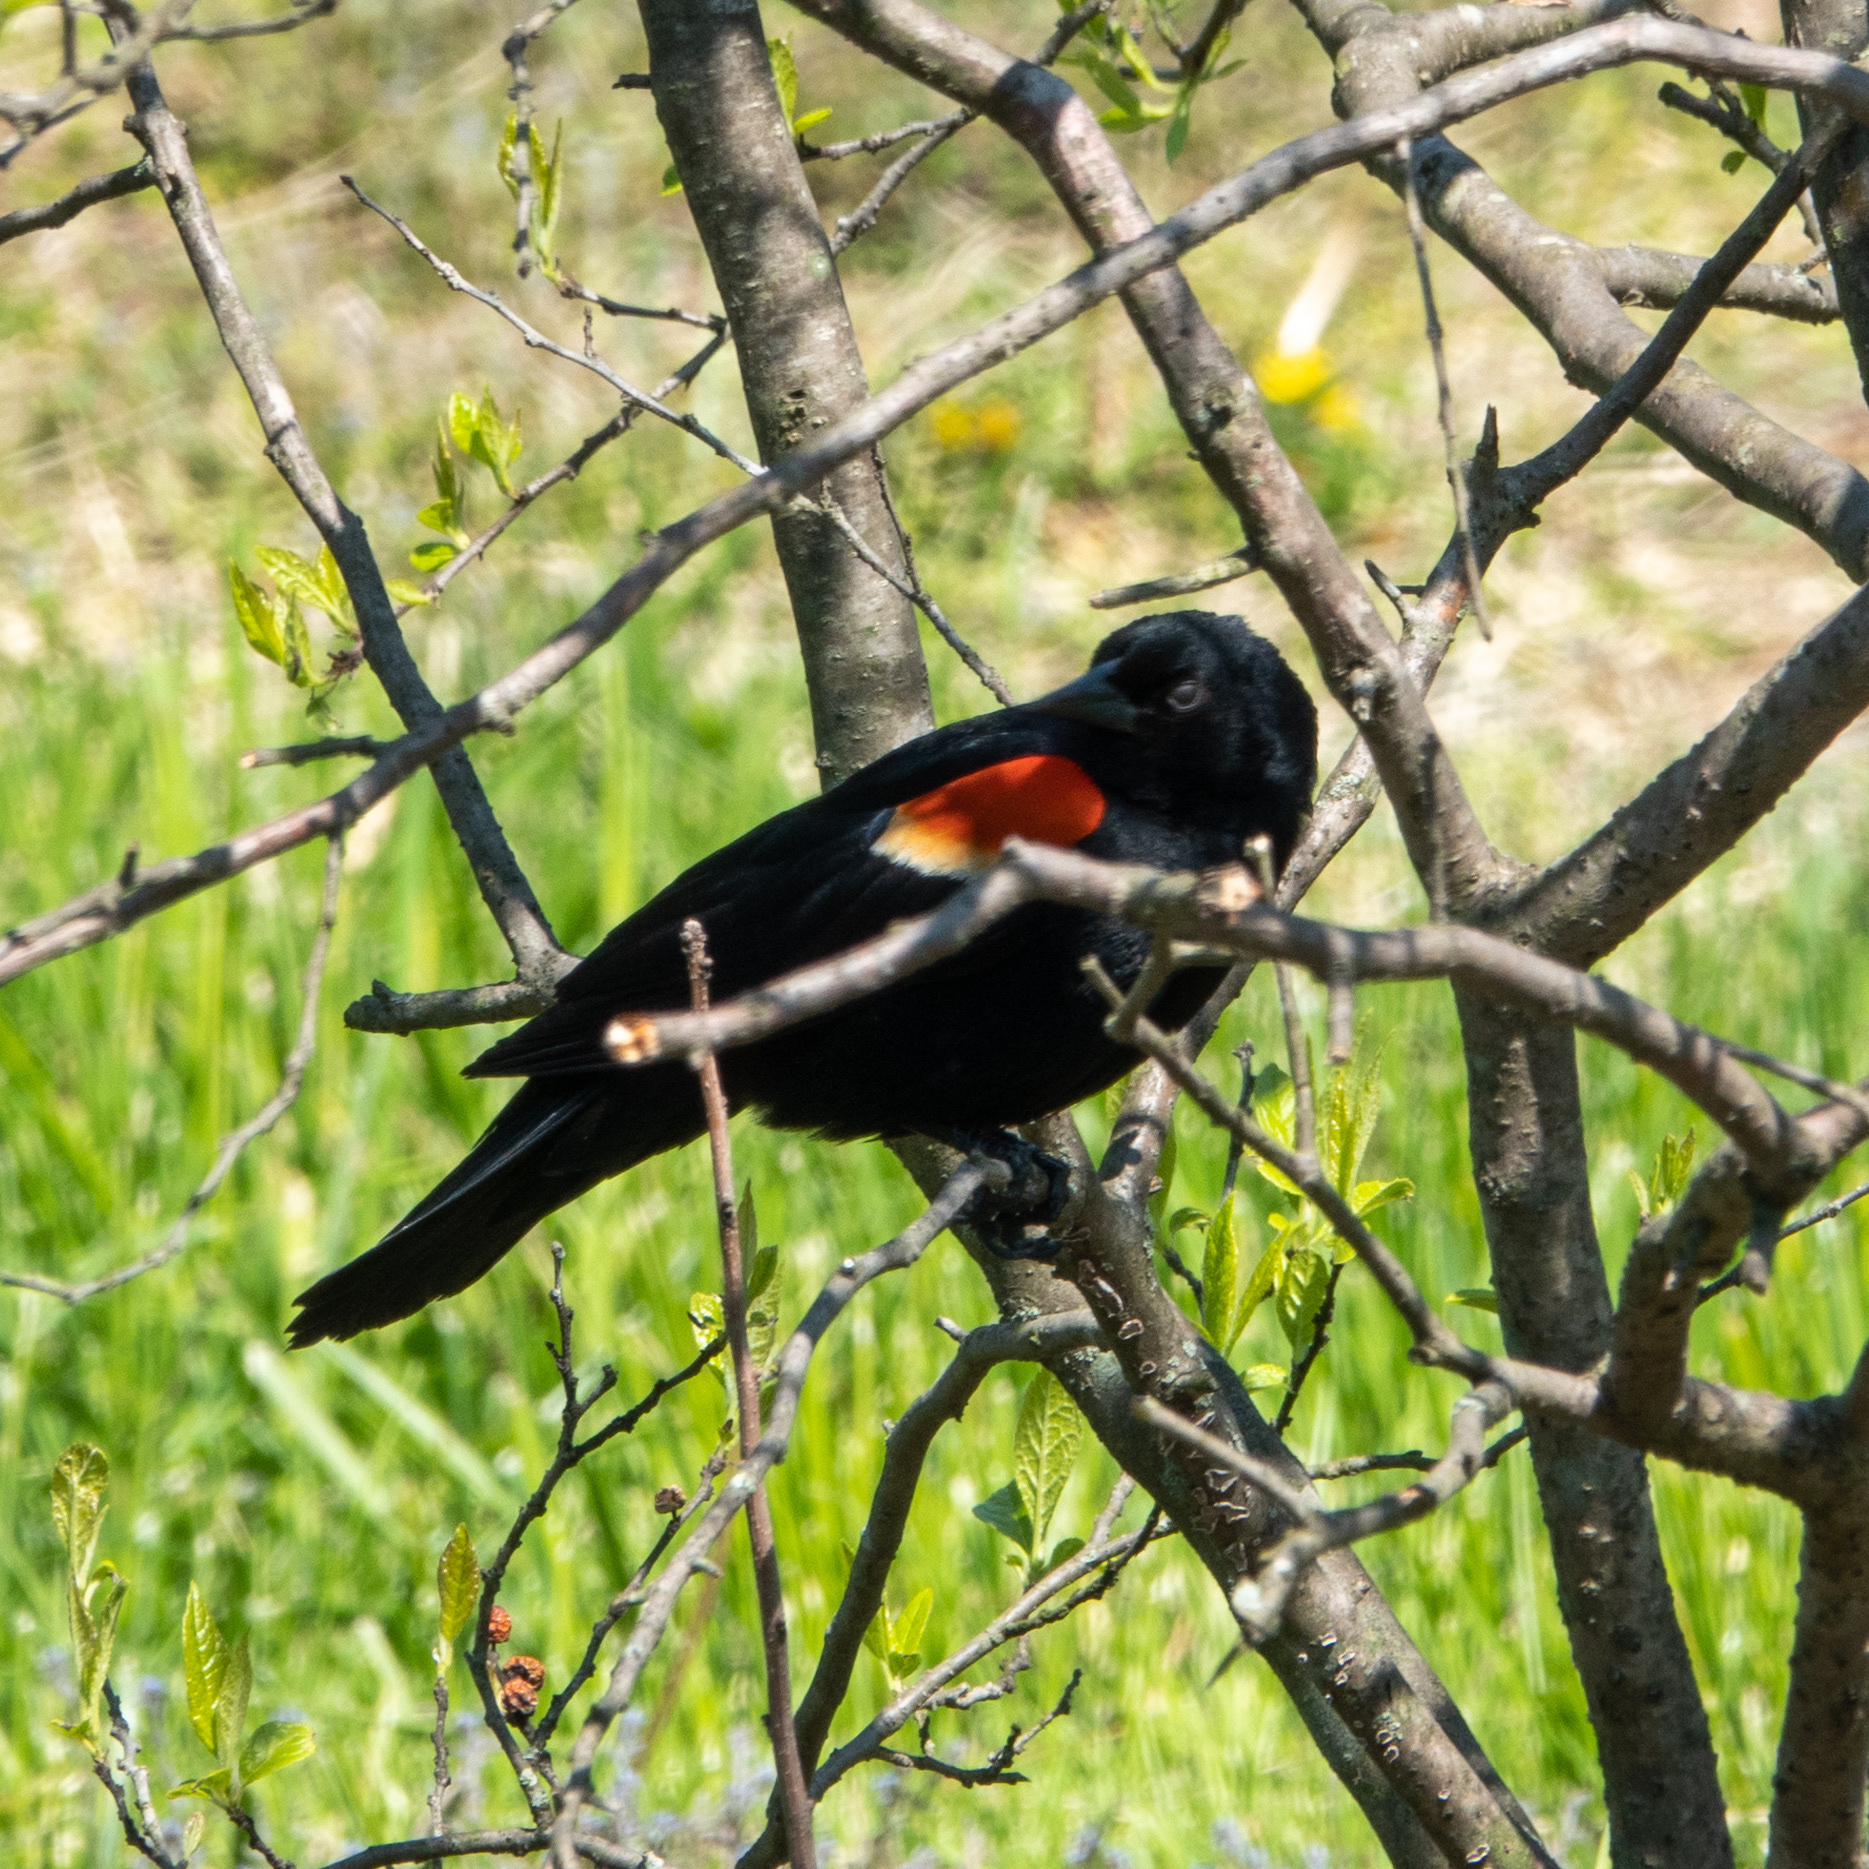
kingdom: Animalia
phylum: Chordata
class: Aves
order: Passeriformes
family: Icteridae
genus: Agelaius
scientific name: Agelaius phoeniceus
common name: Red-winged blackbird
